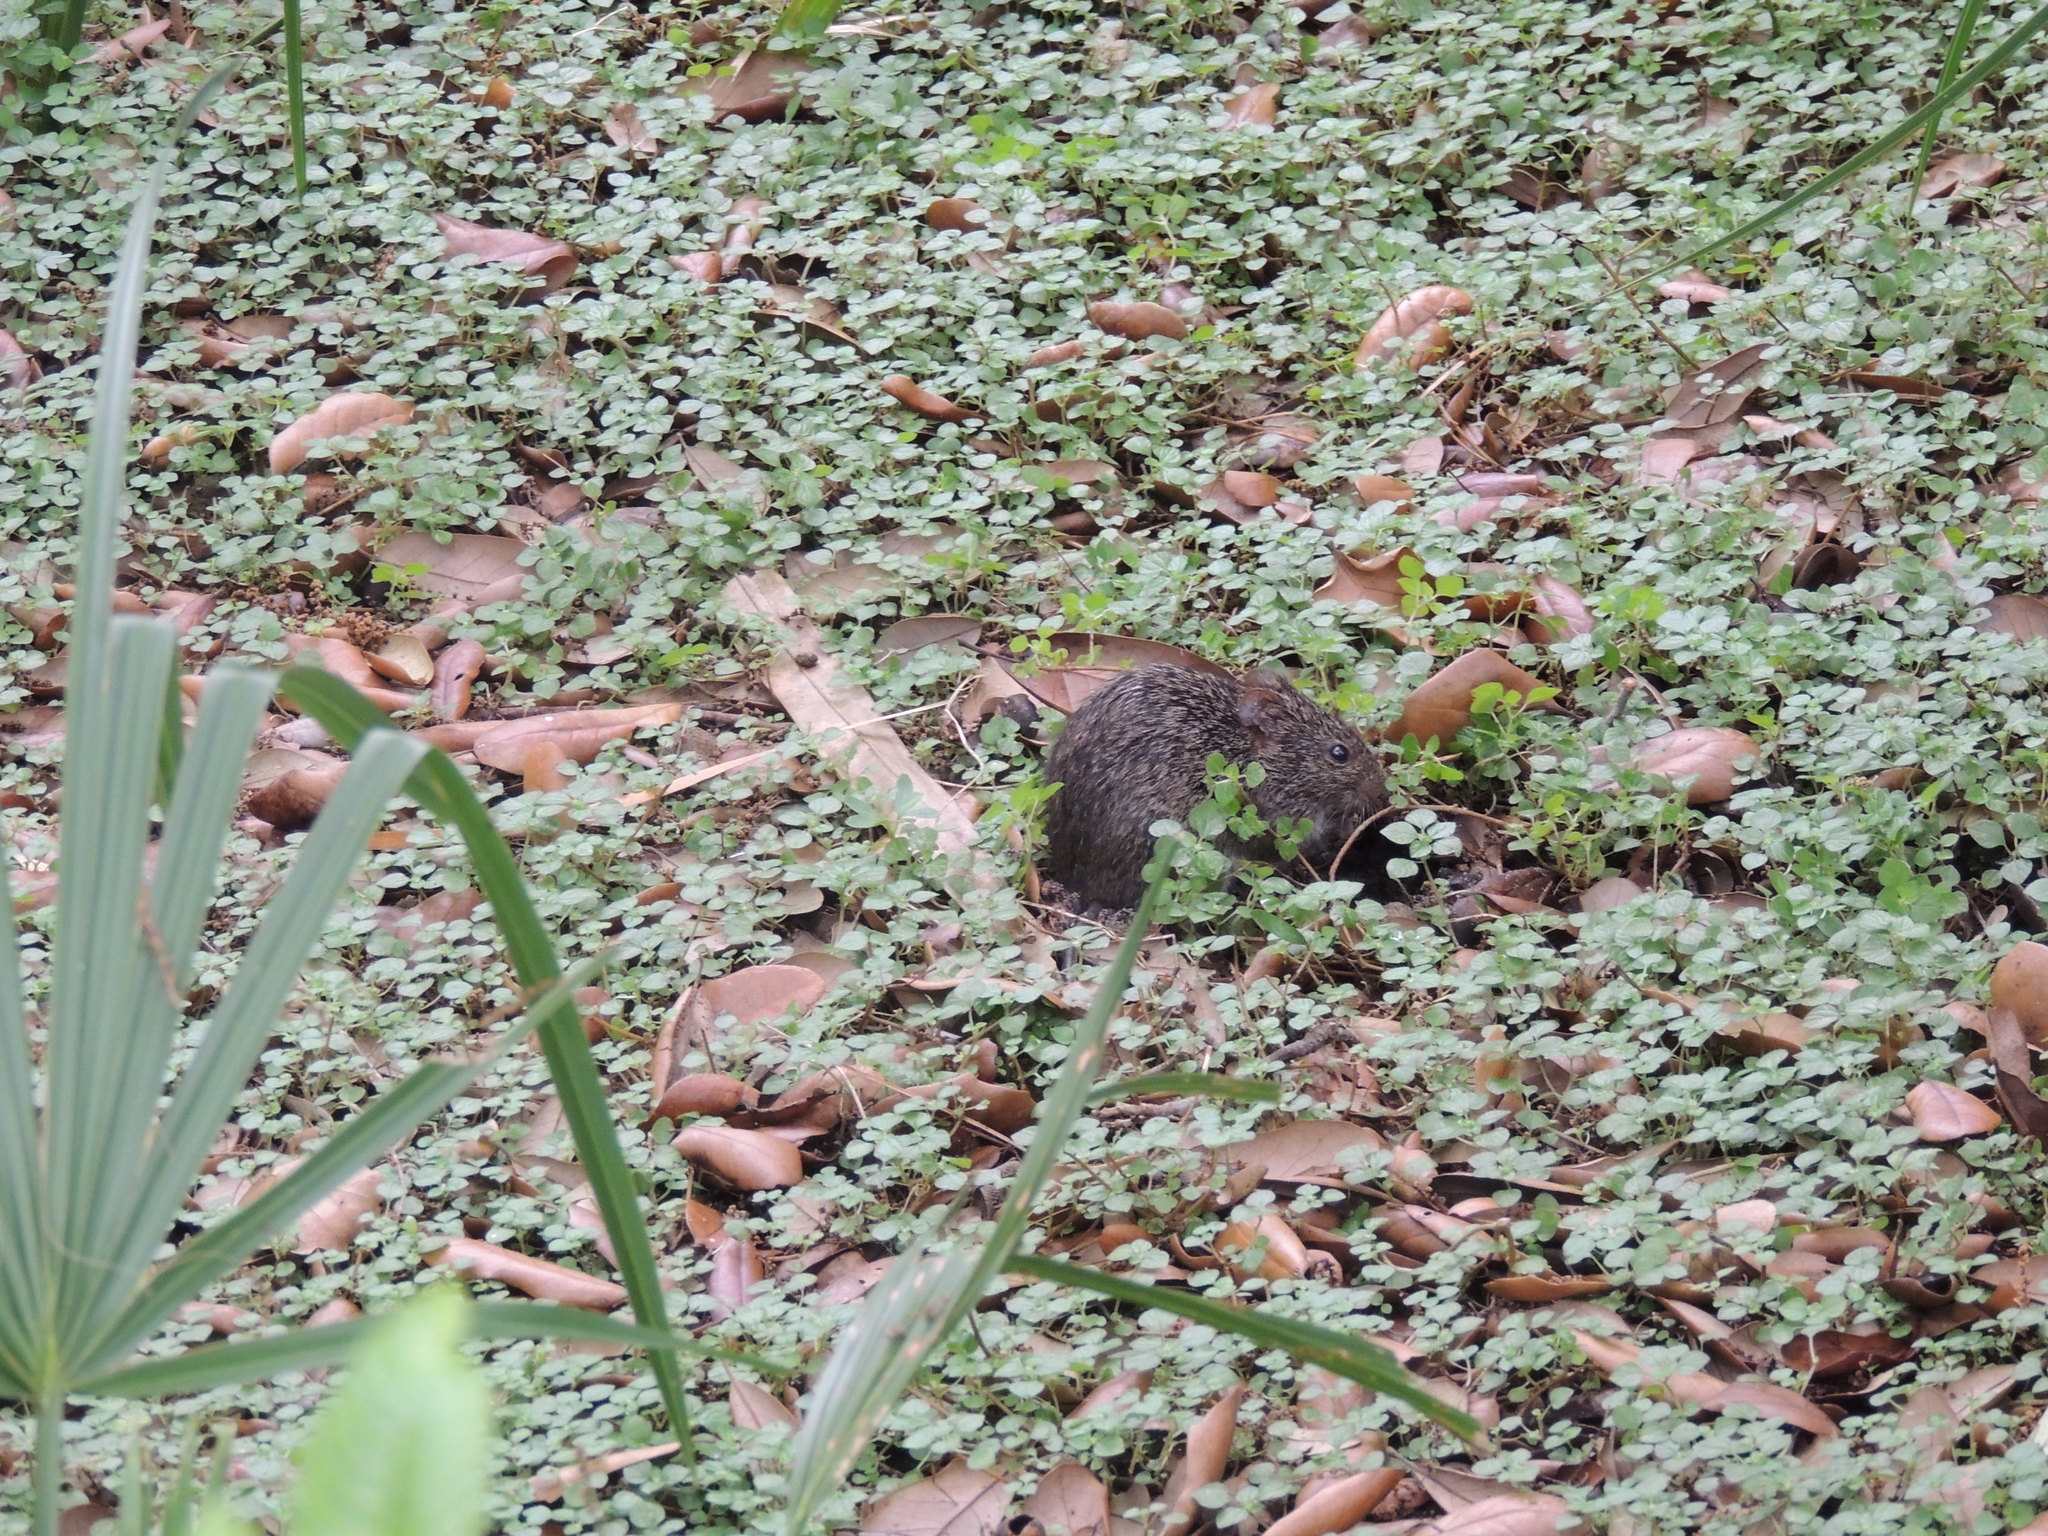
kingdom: Animalia
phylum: Chordata
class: Mammalia
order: Rodentia
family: Cricetidae
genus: Sigmodon
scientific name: Sigmodon hispidus
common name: Hispid cotton rat
